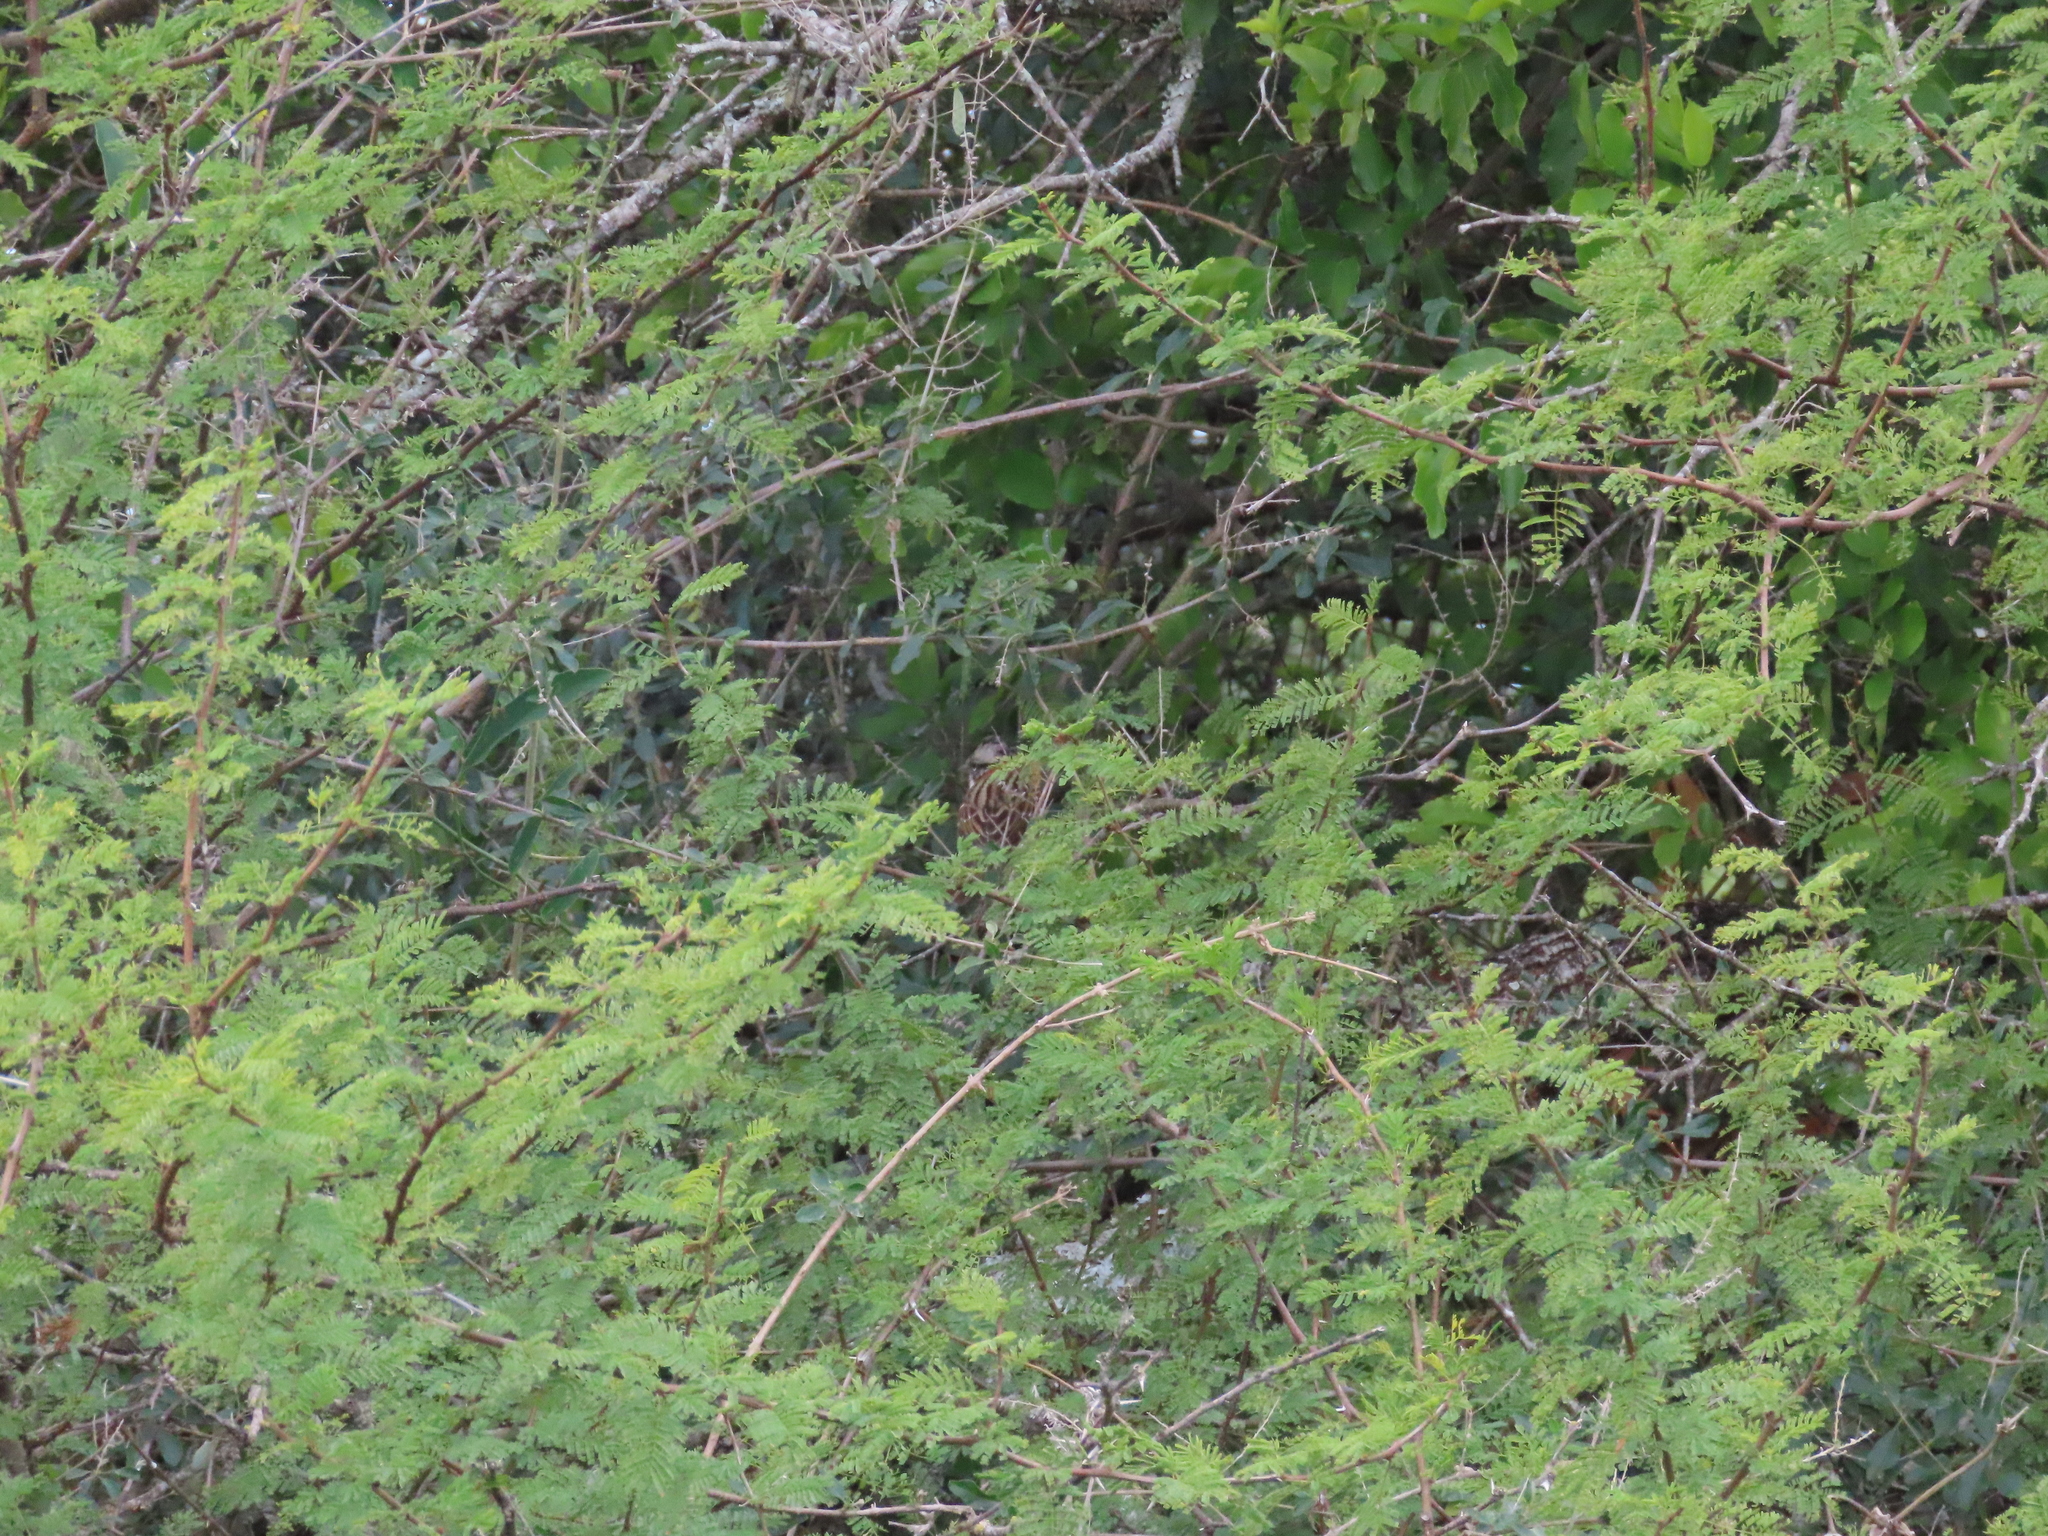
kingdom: Animalia
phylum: Chordata
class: Aves
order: Passeriformes
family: Passerellidae
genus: Zonotrichia
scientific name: Zonotrichia capensis
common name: Rufous-collared sparrow
